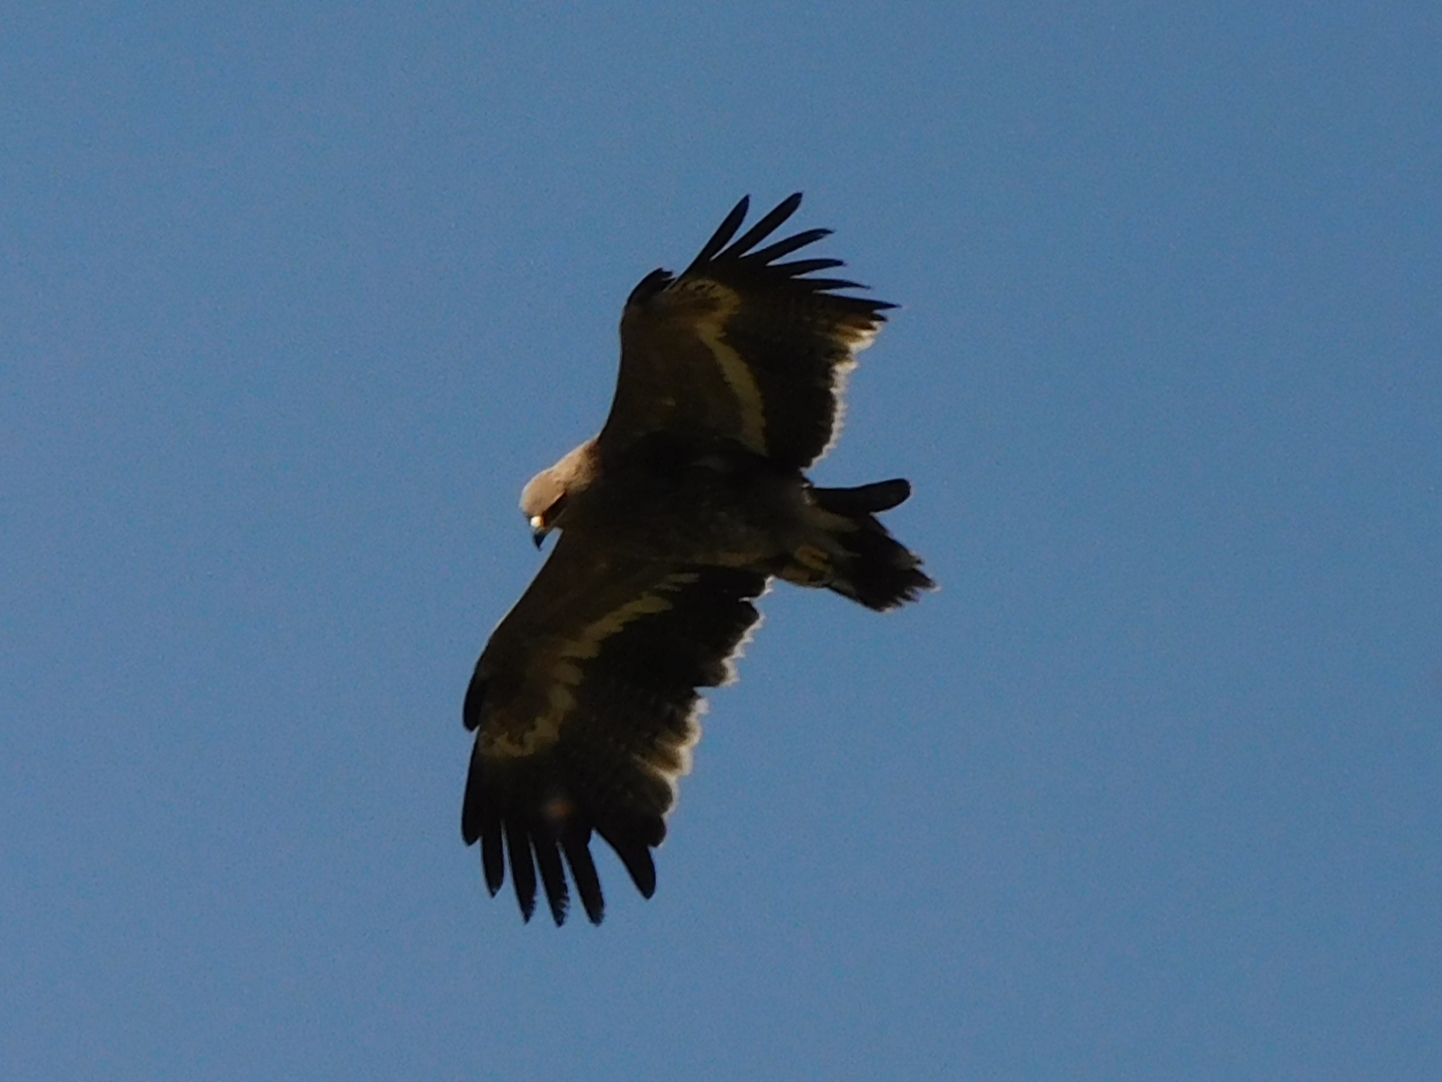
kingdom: Animalia
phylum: Chordata
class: Aves
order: Accipitriformes
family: Accipitridae
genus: Aquila
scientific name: Aquila nipalensis
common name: Steppe eagle
